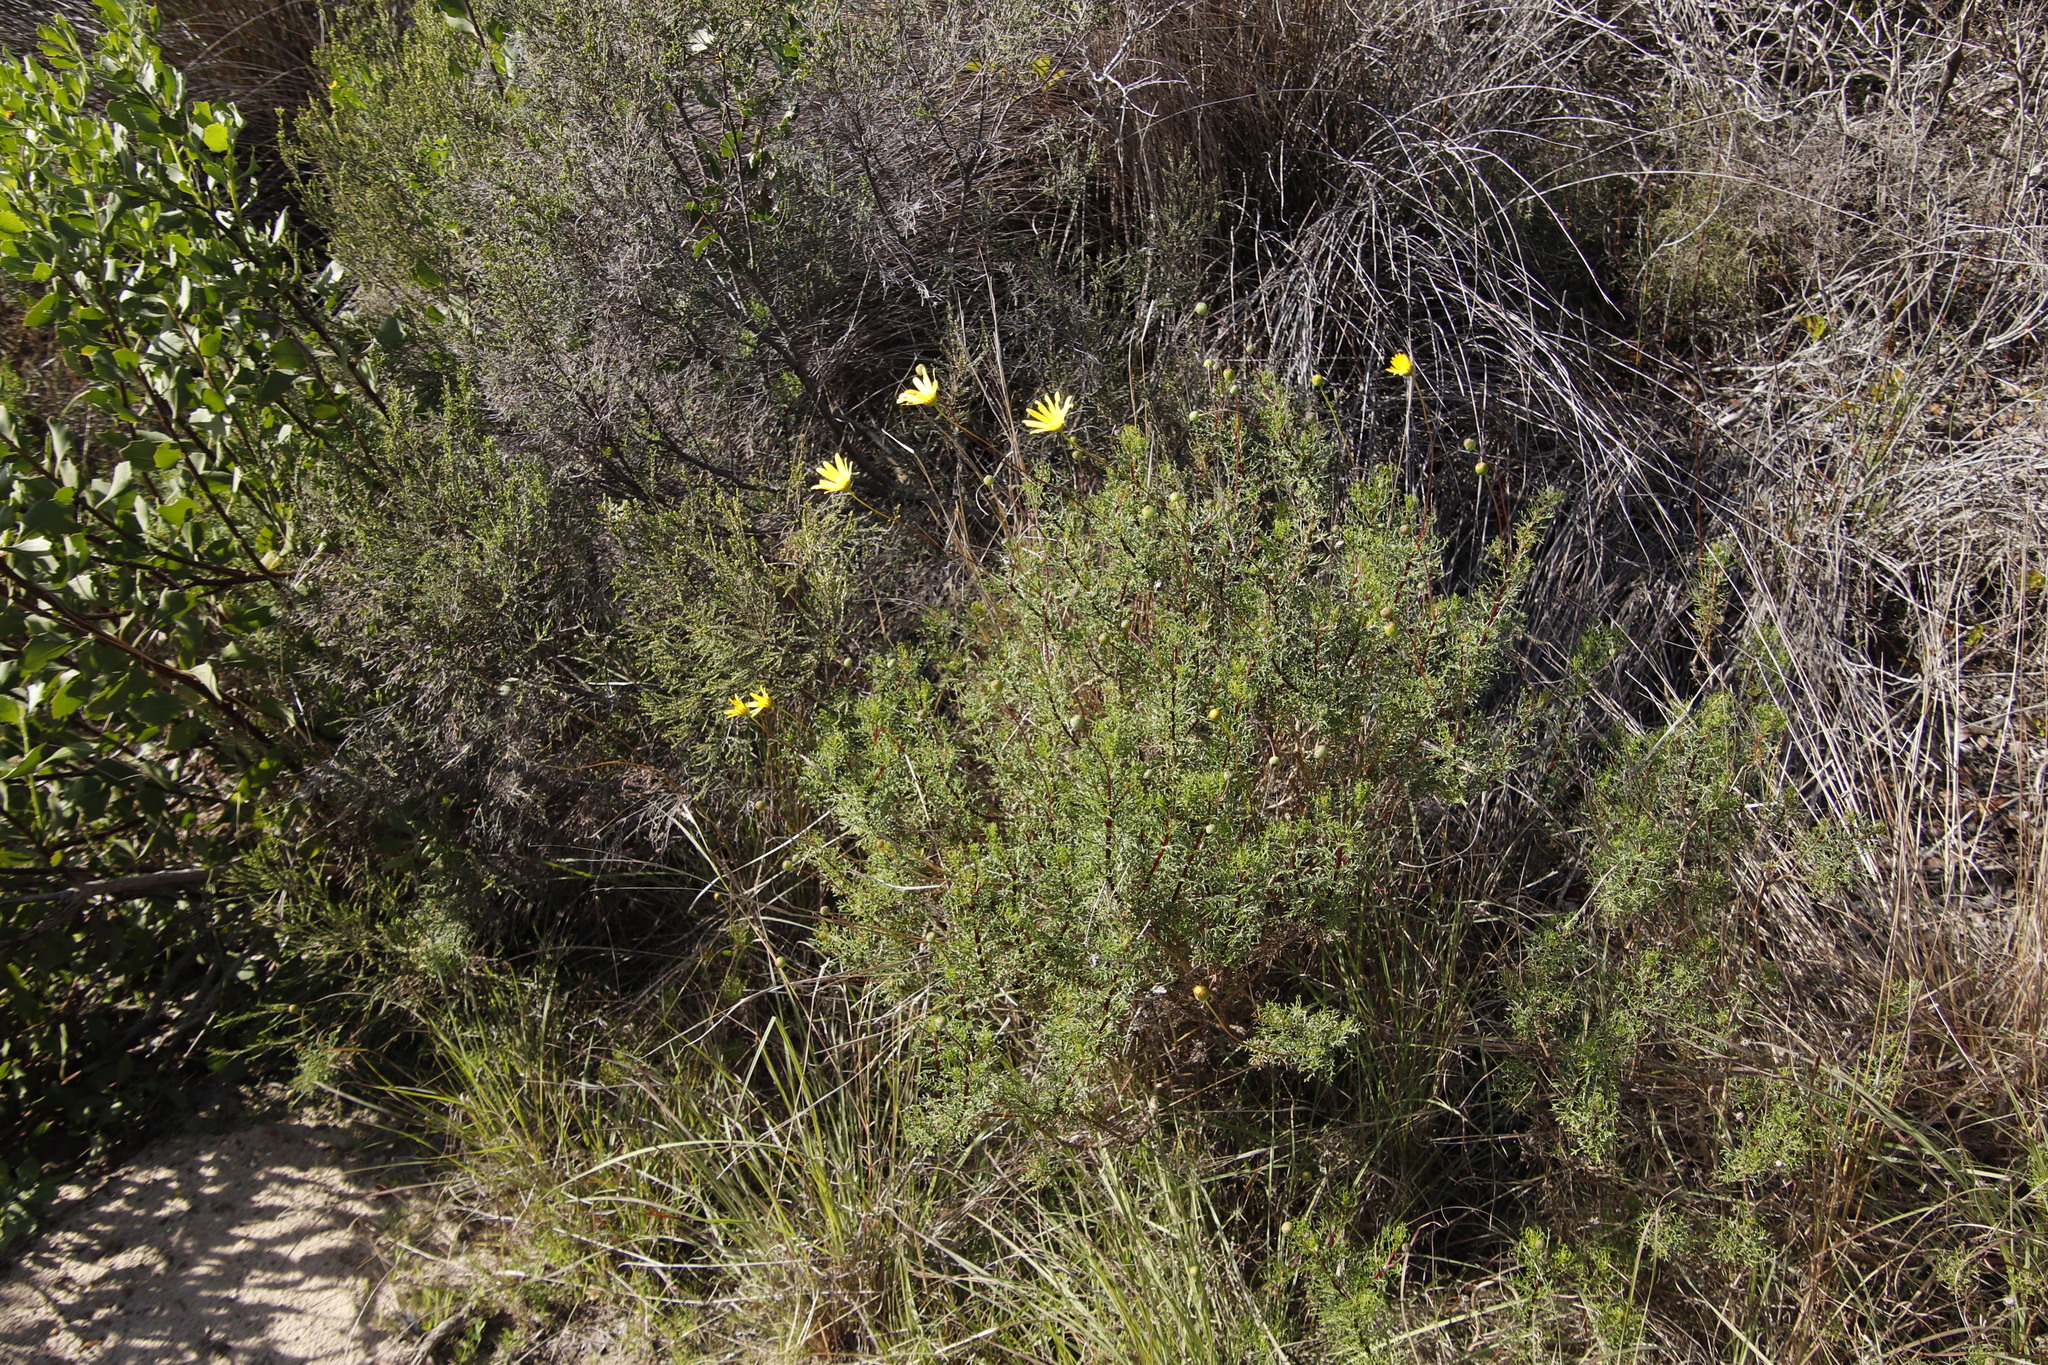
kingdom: Plantae
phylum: Tracheophyta
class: Magnoliopsida
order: Asterales
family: Asteraceae
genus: Euryops
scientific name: Euryops abrotanifolius
